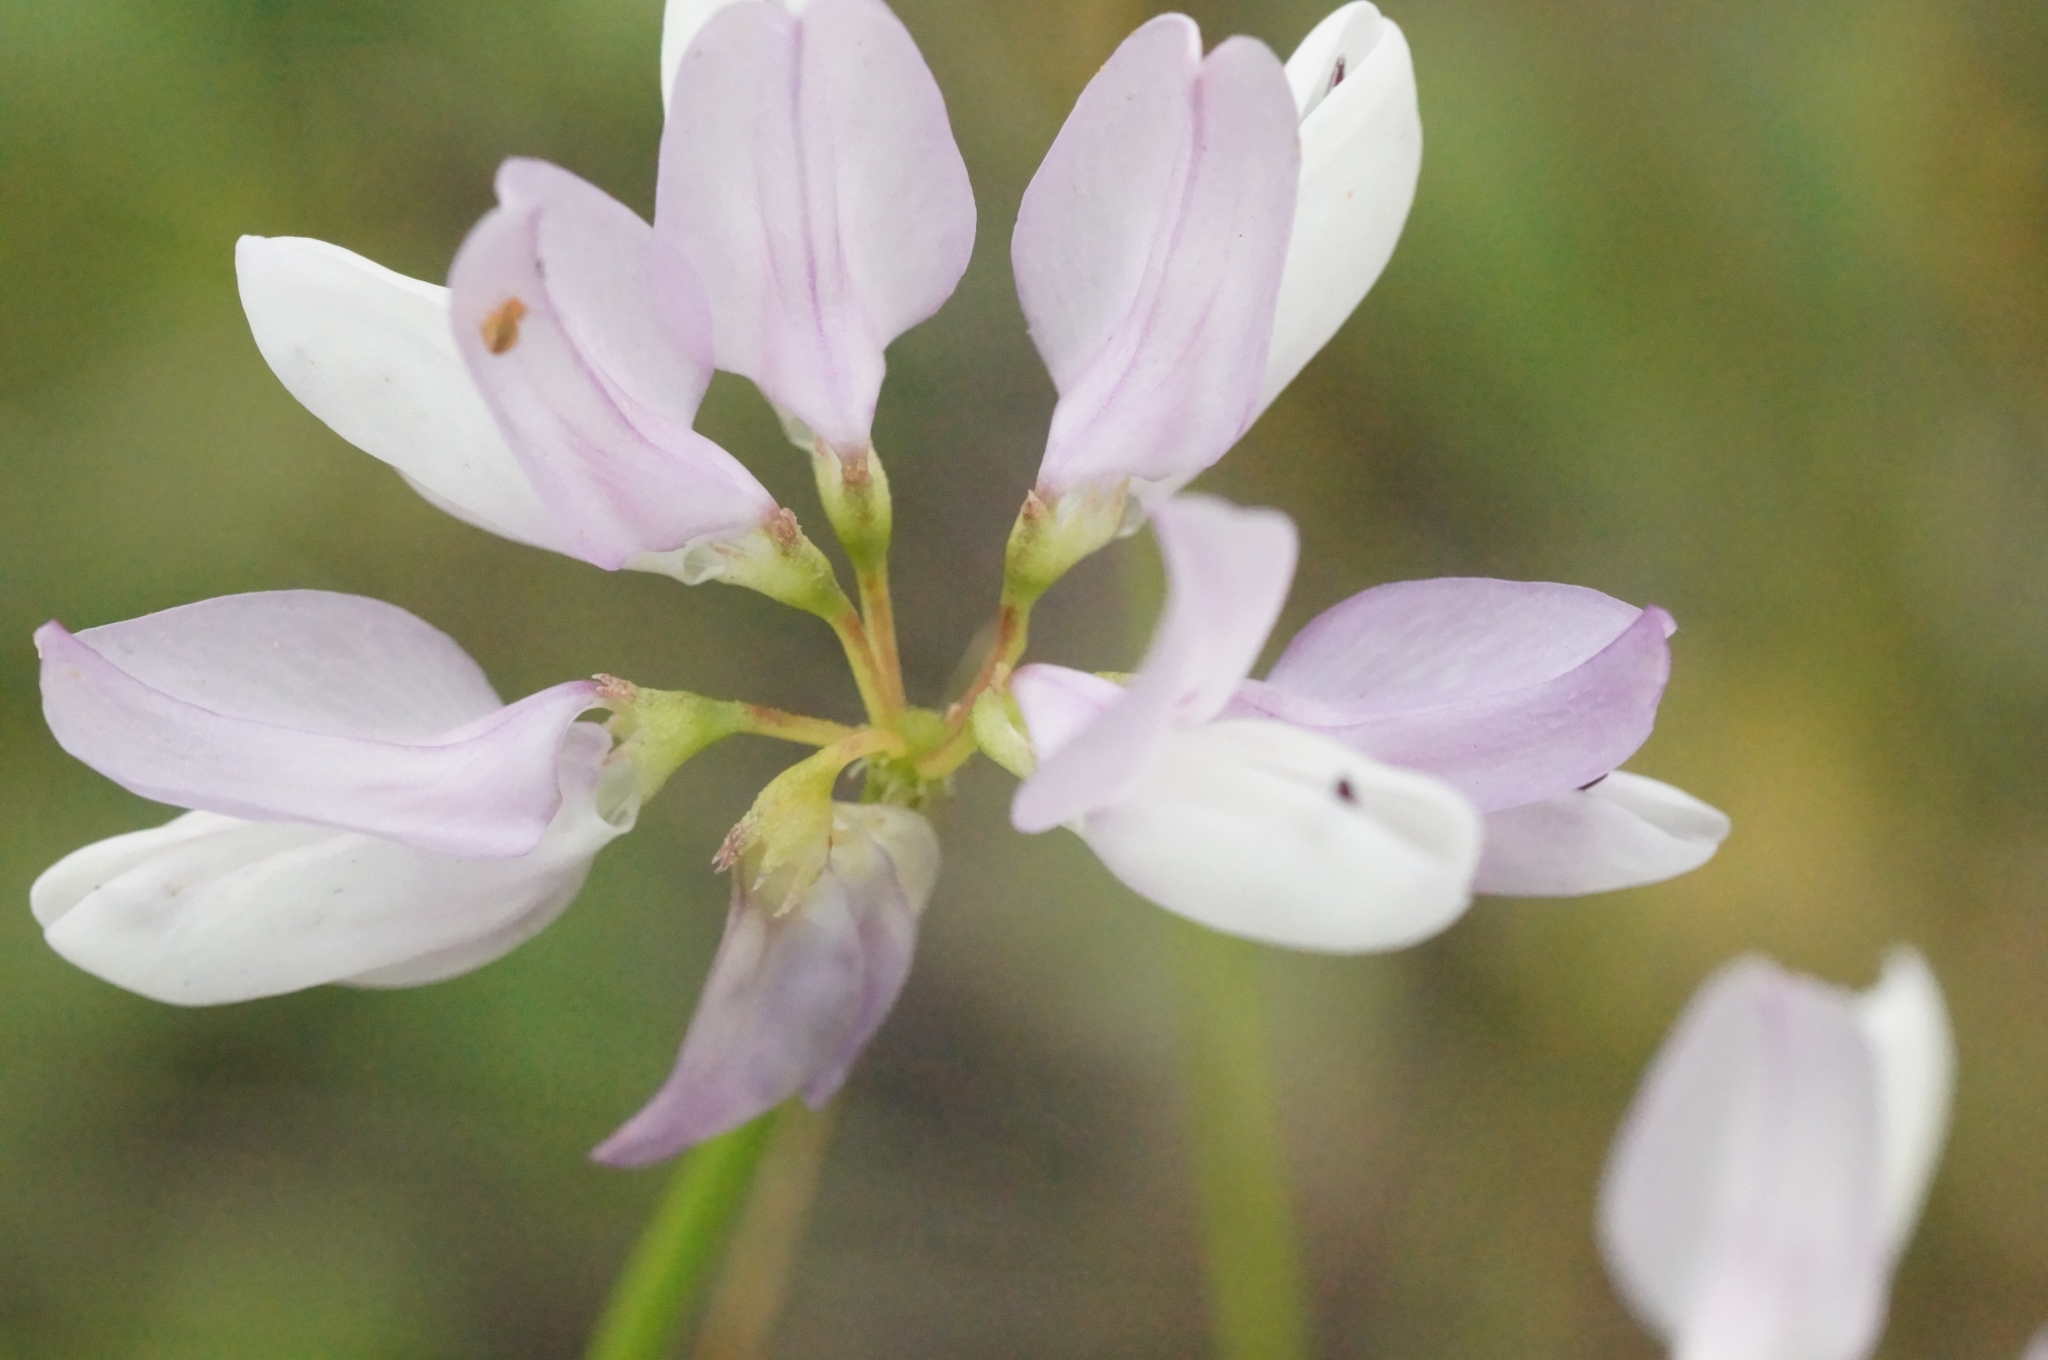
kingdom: Plantae
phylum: Tracheophyta
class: Magnoliopsida
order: Fabales
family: Fabaceae
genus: Coronilla
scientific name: Coronilla varia
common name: Crownvetch
